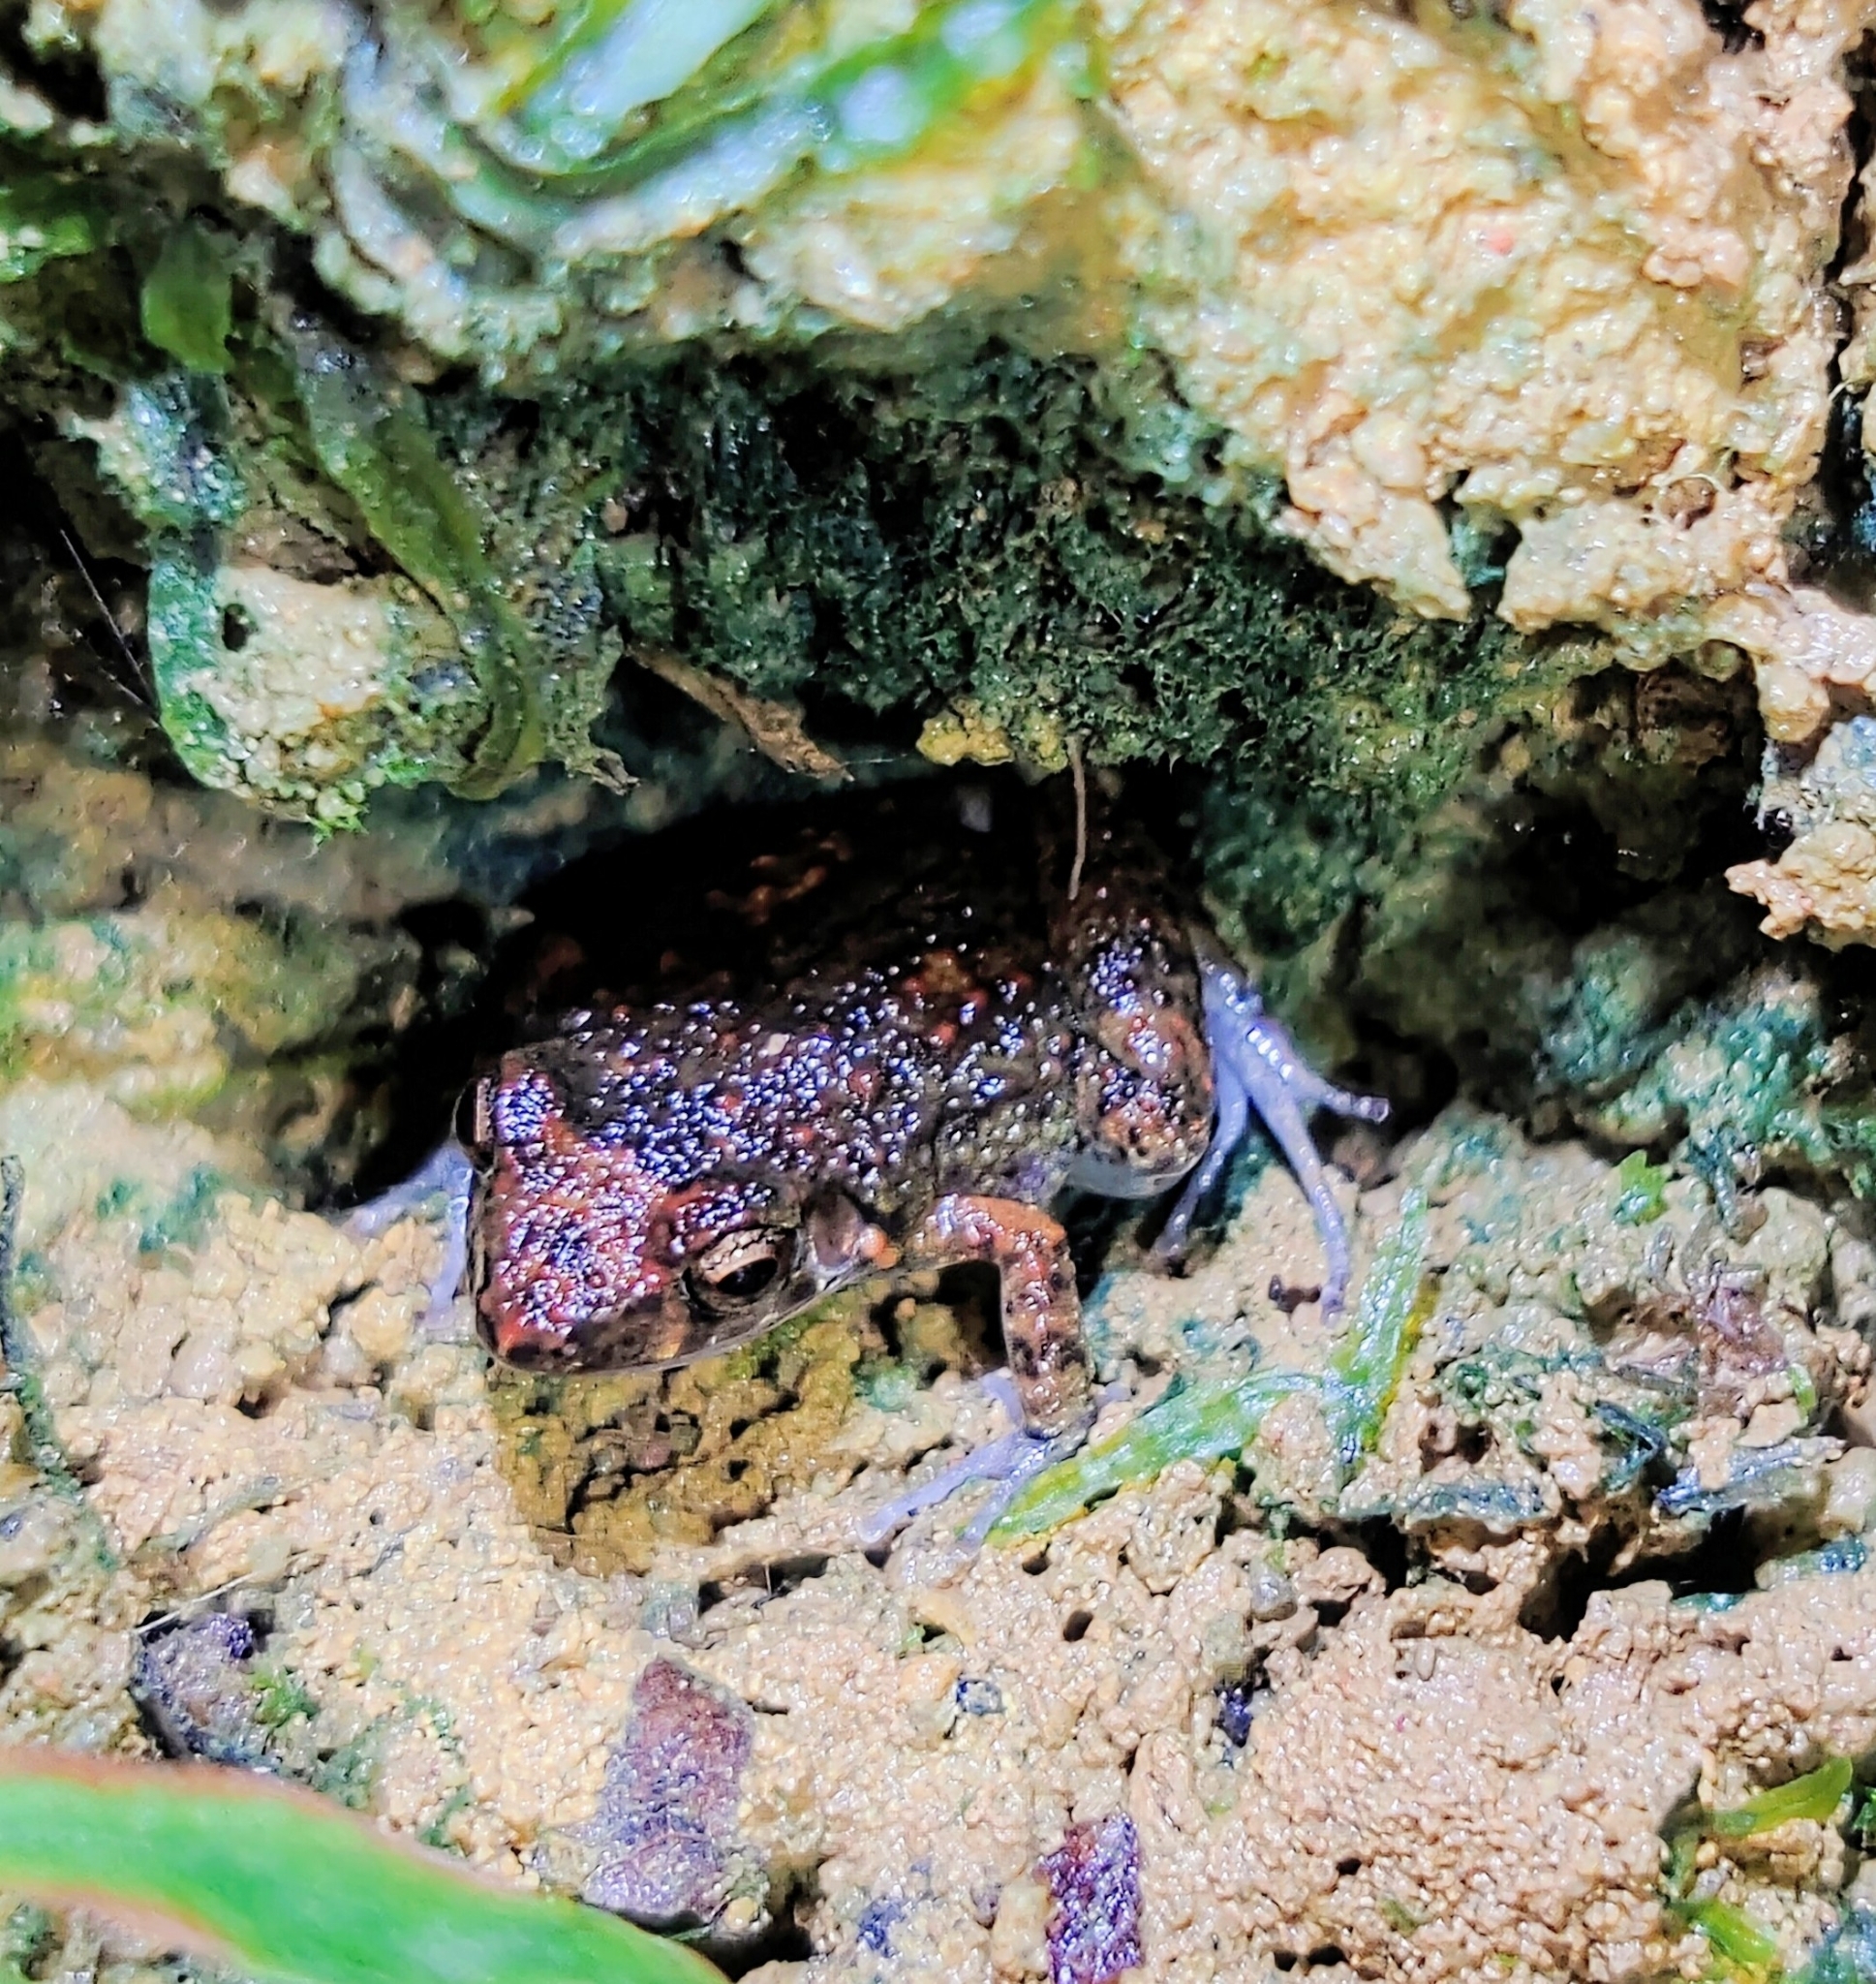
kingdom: Animalia
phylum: Chordata
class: Amphibia
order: Anura
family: Eleutherodactylidae
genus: Eleutherodactylus
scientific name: Eleutherodactylus planirostris
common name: Greenhouse frog
